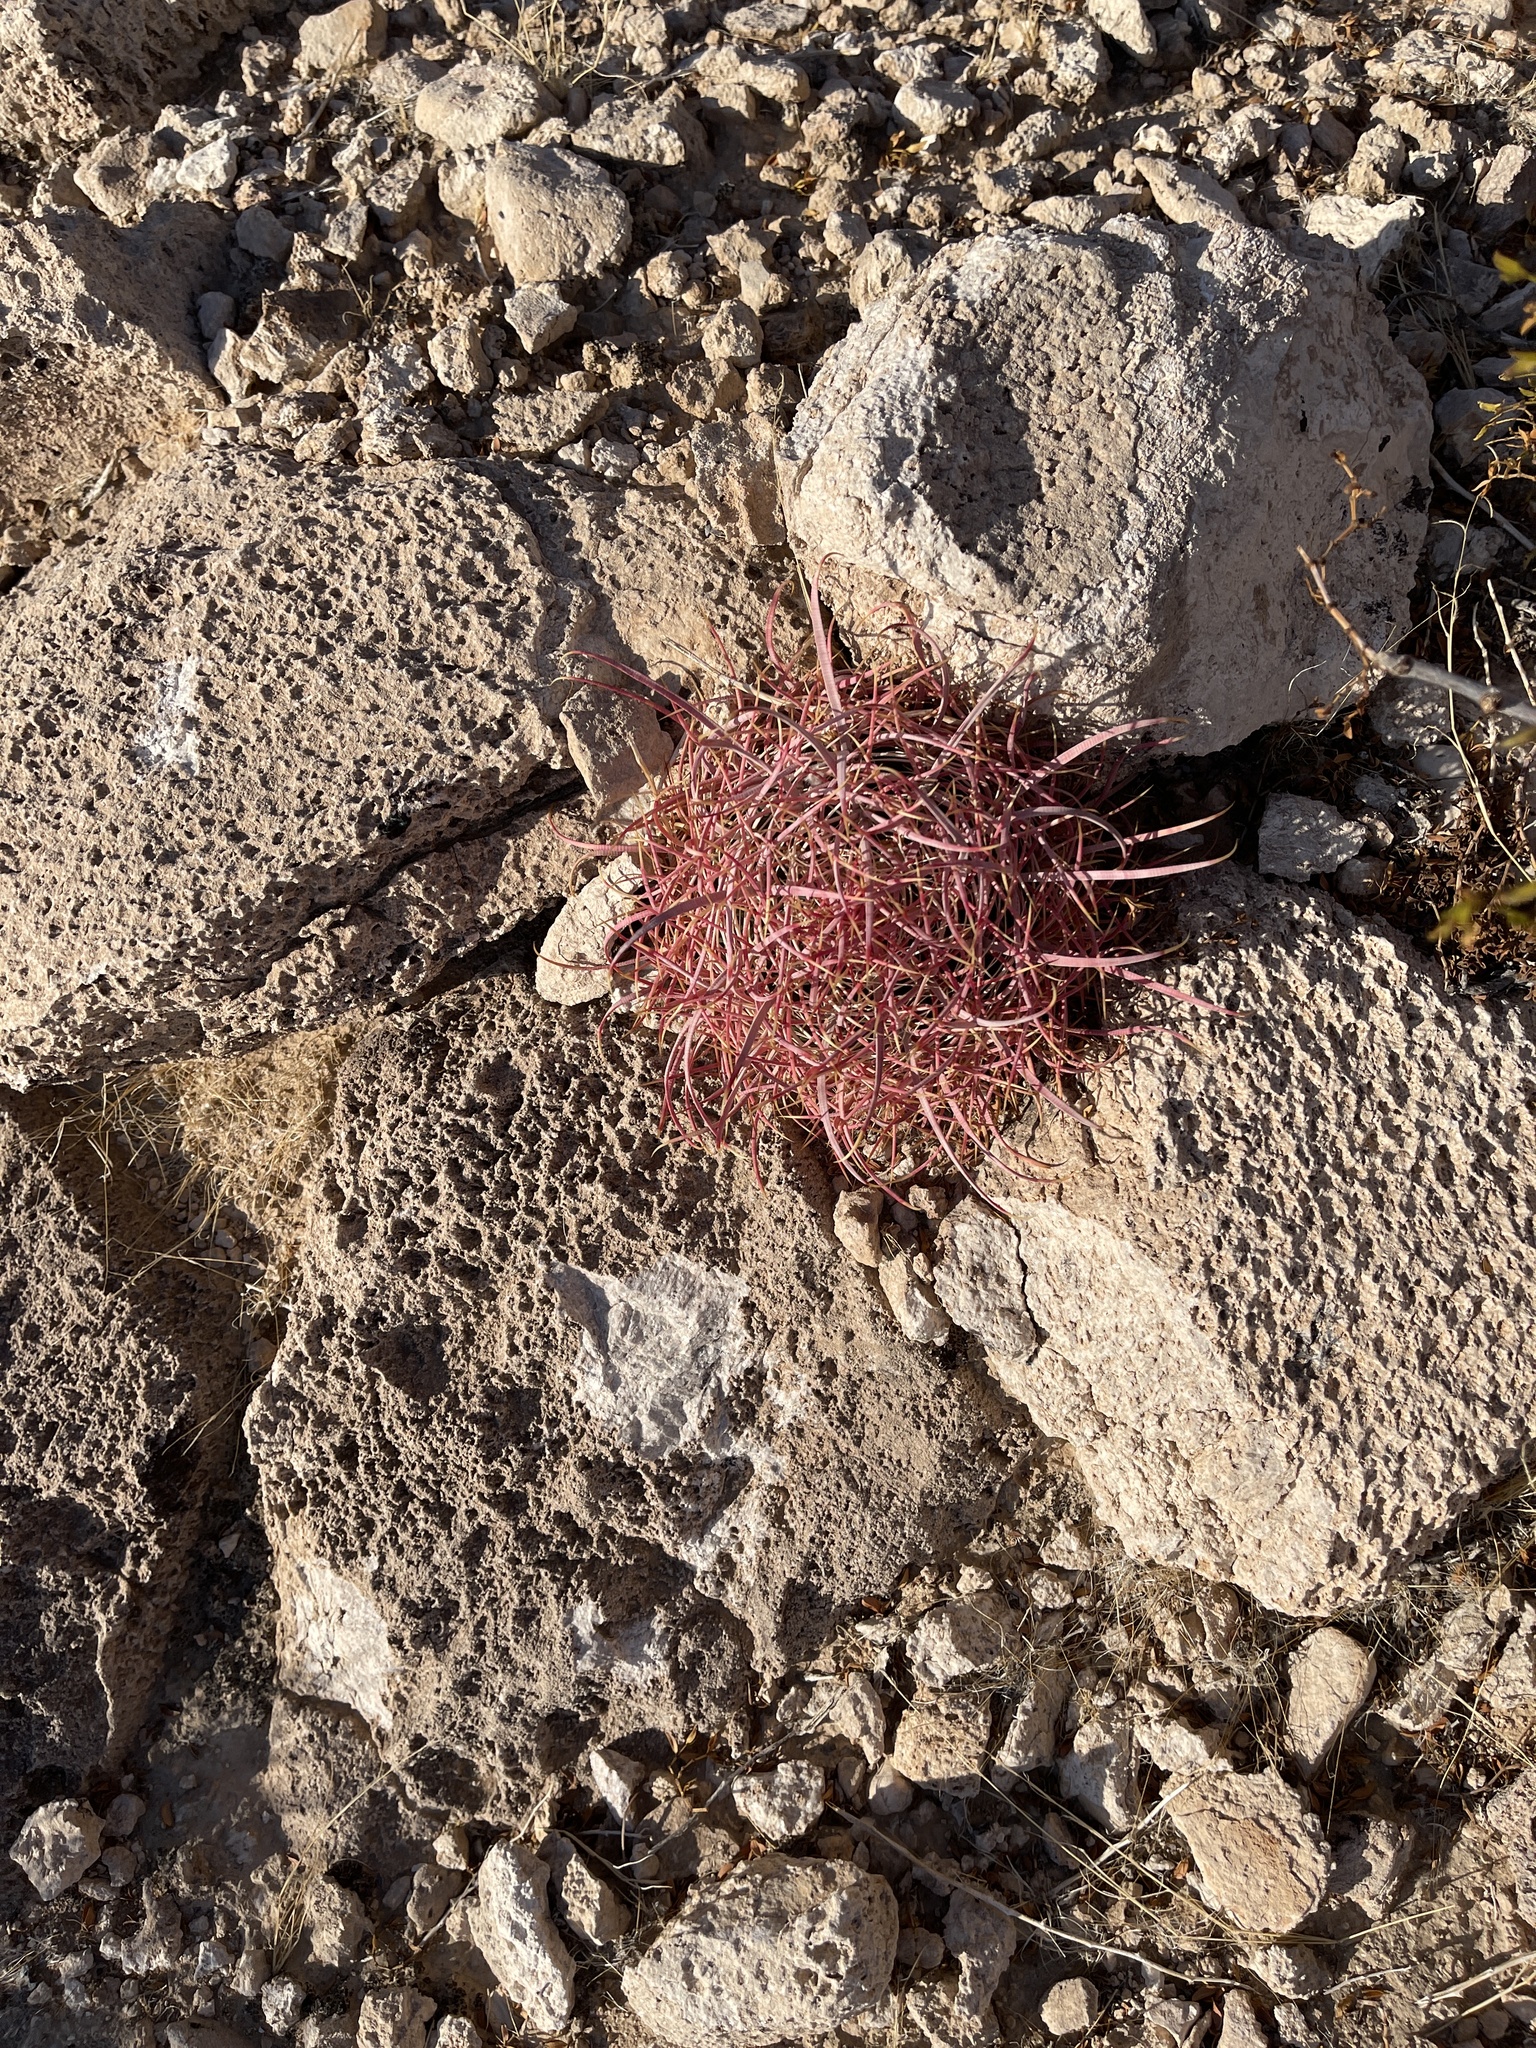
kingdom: Plantae
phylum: Tracheophyta
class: Magnoliopsida
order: Caryophyllales
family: Cactaceae
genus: Ferocactus
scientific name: Ferocactus cylindraceus
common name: California barrel cactus
